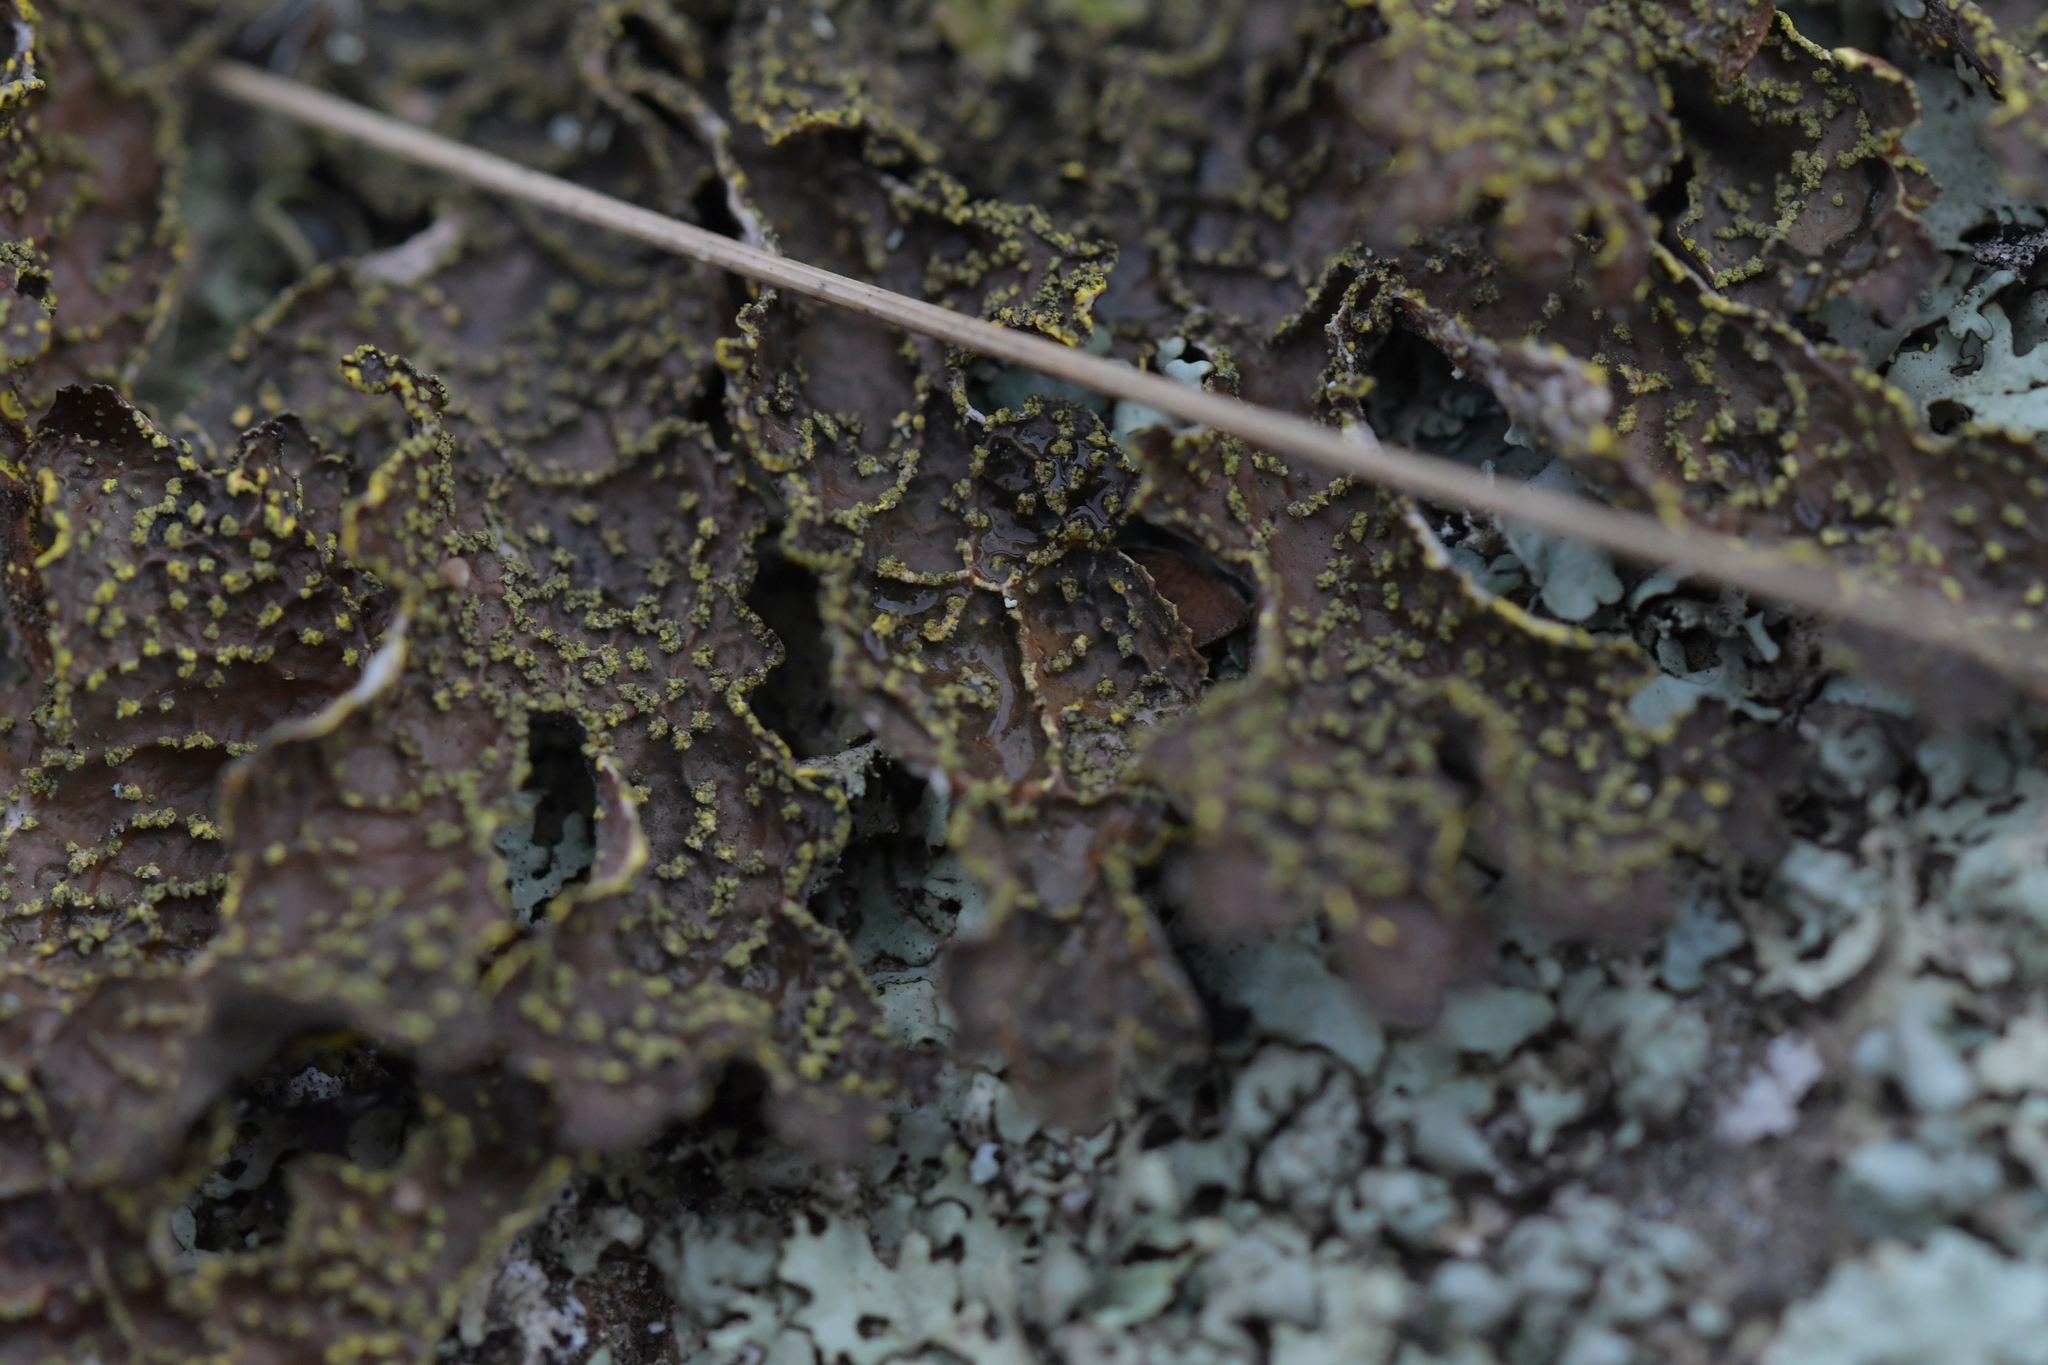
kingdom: Fungi
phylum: Ascomycota
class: Lecanoromycetes
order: Peltigerales
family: Lobariaceae
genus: Pseudocyphellaria
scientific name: Pseudocyphellaria crocata
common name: Golden specklebelly
